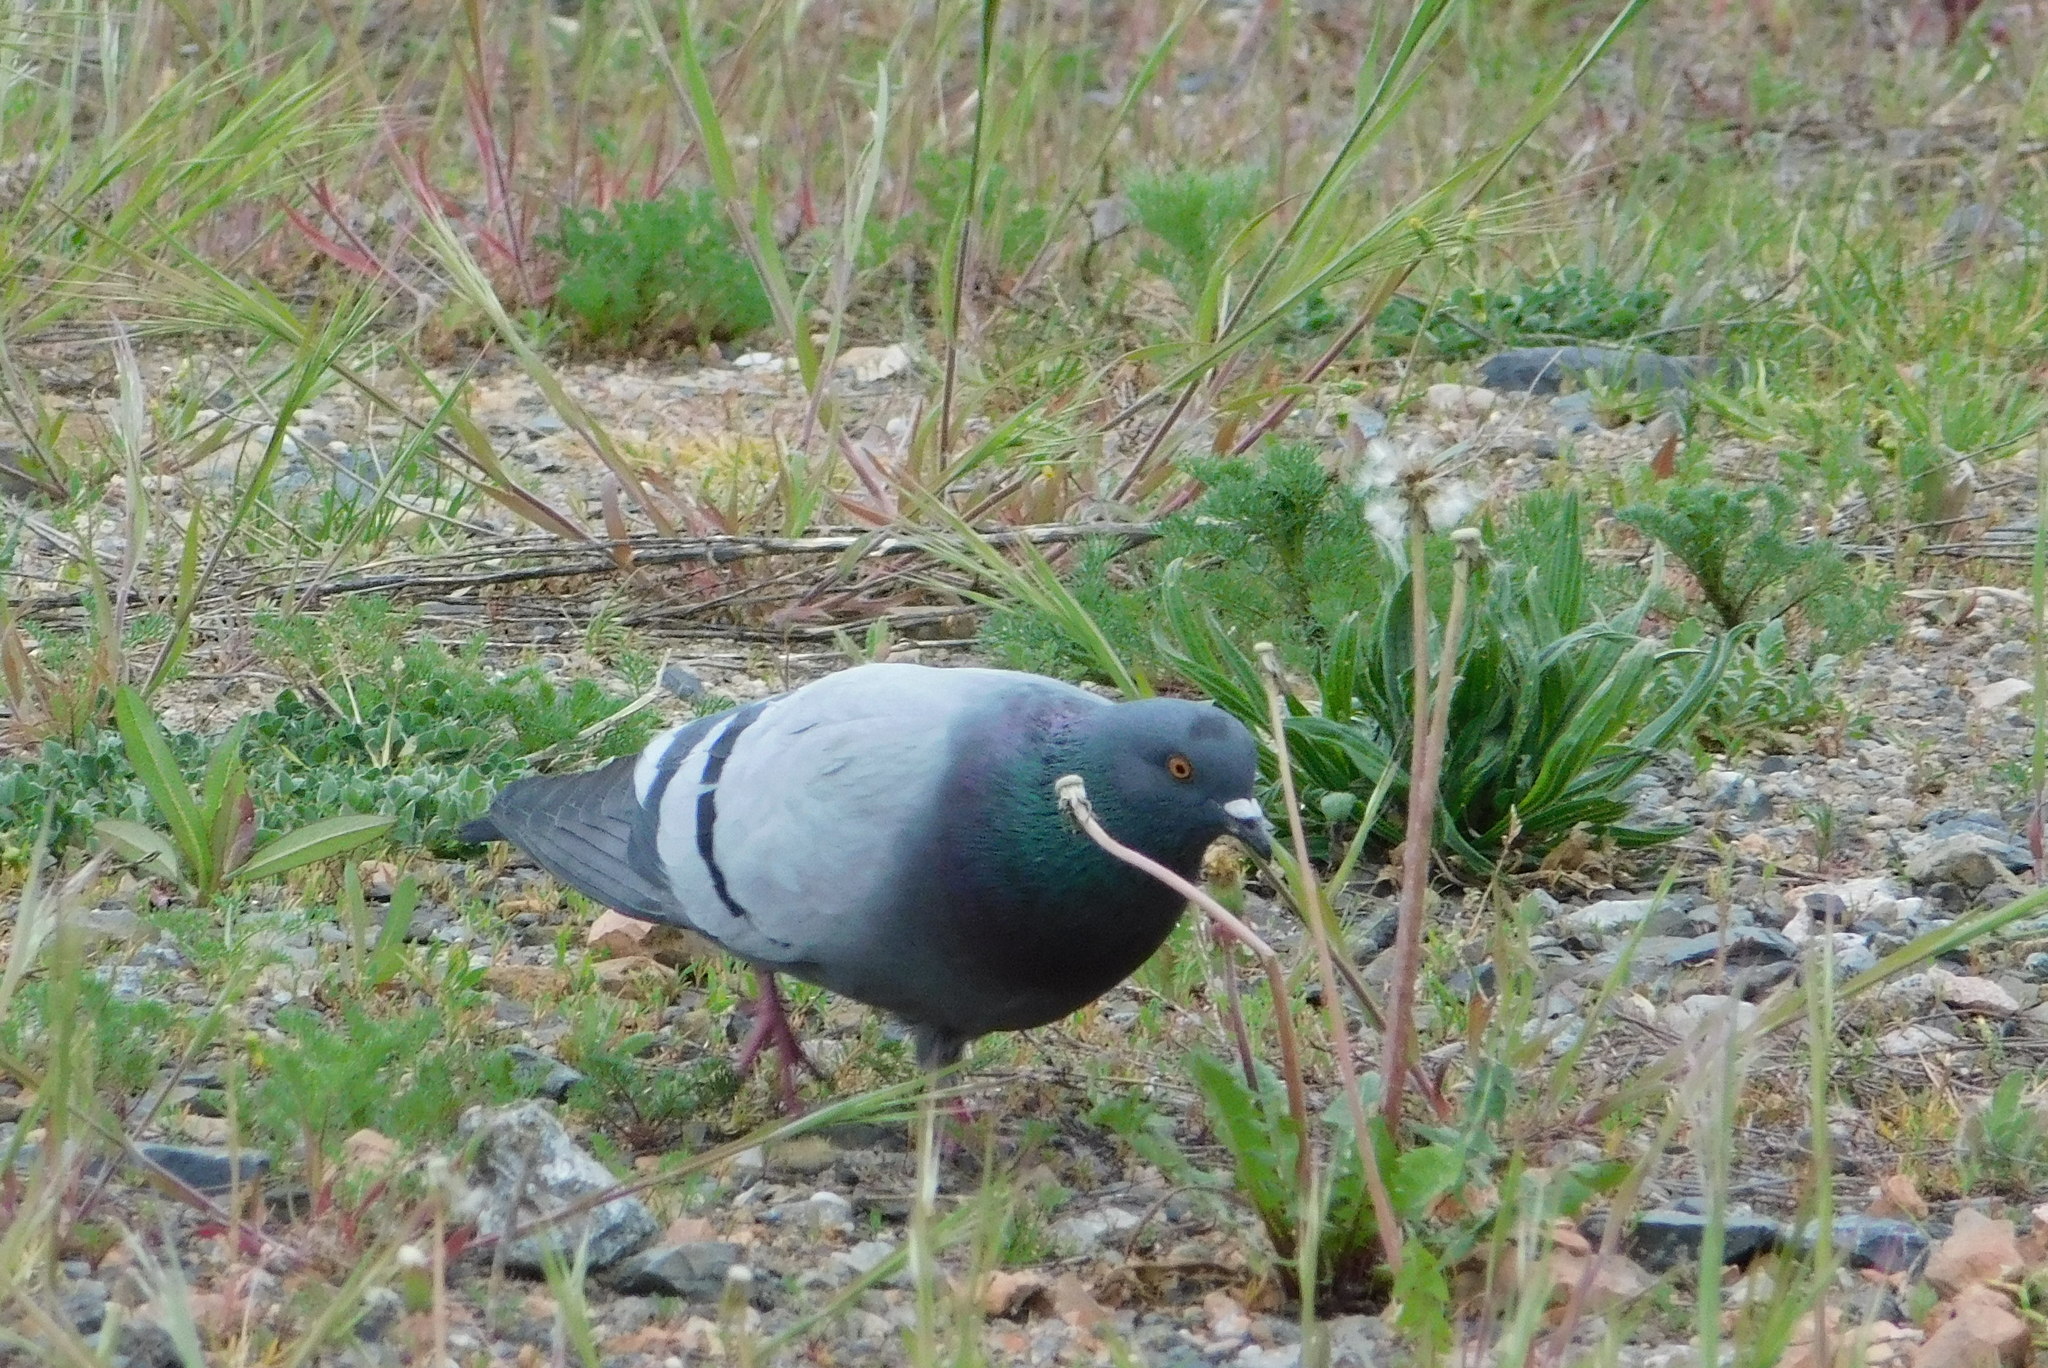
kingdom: Animalia
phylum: Chordata
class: Aves
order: Columbiformes
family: Columbidae
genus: Columba
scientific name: Columba livia
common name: Rock pigeon
